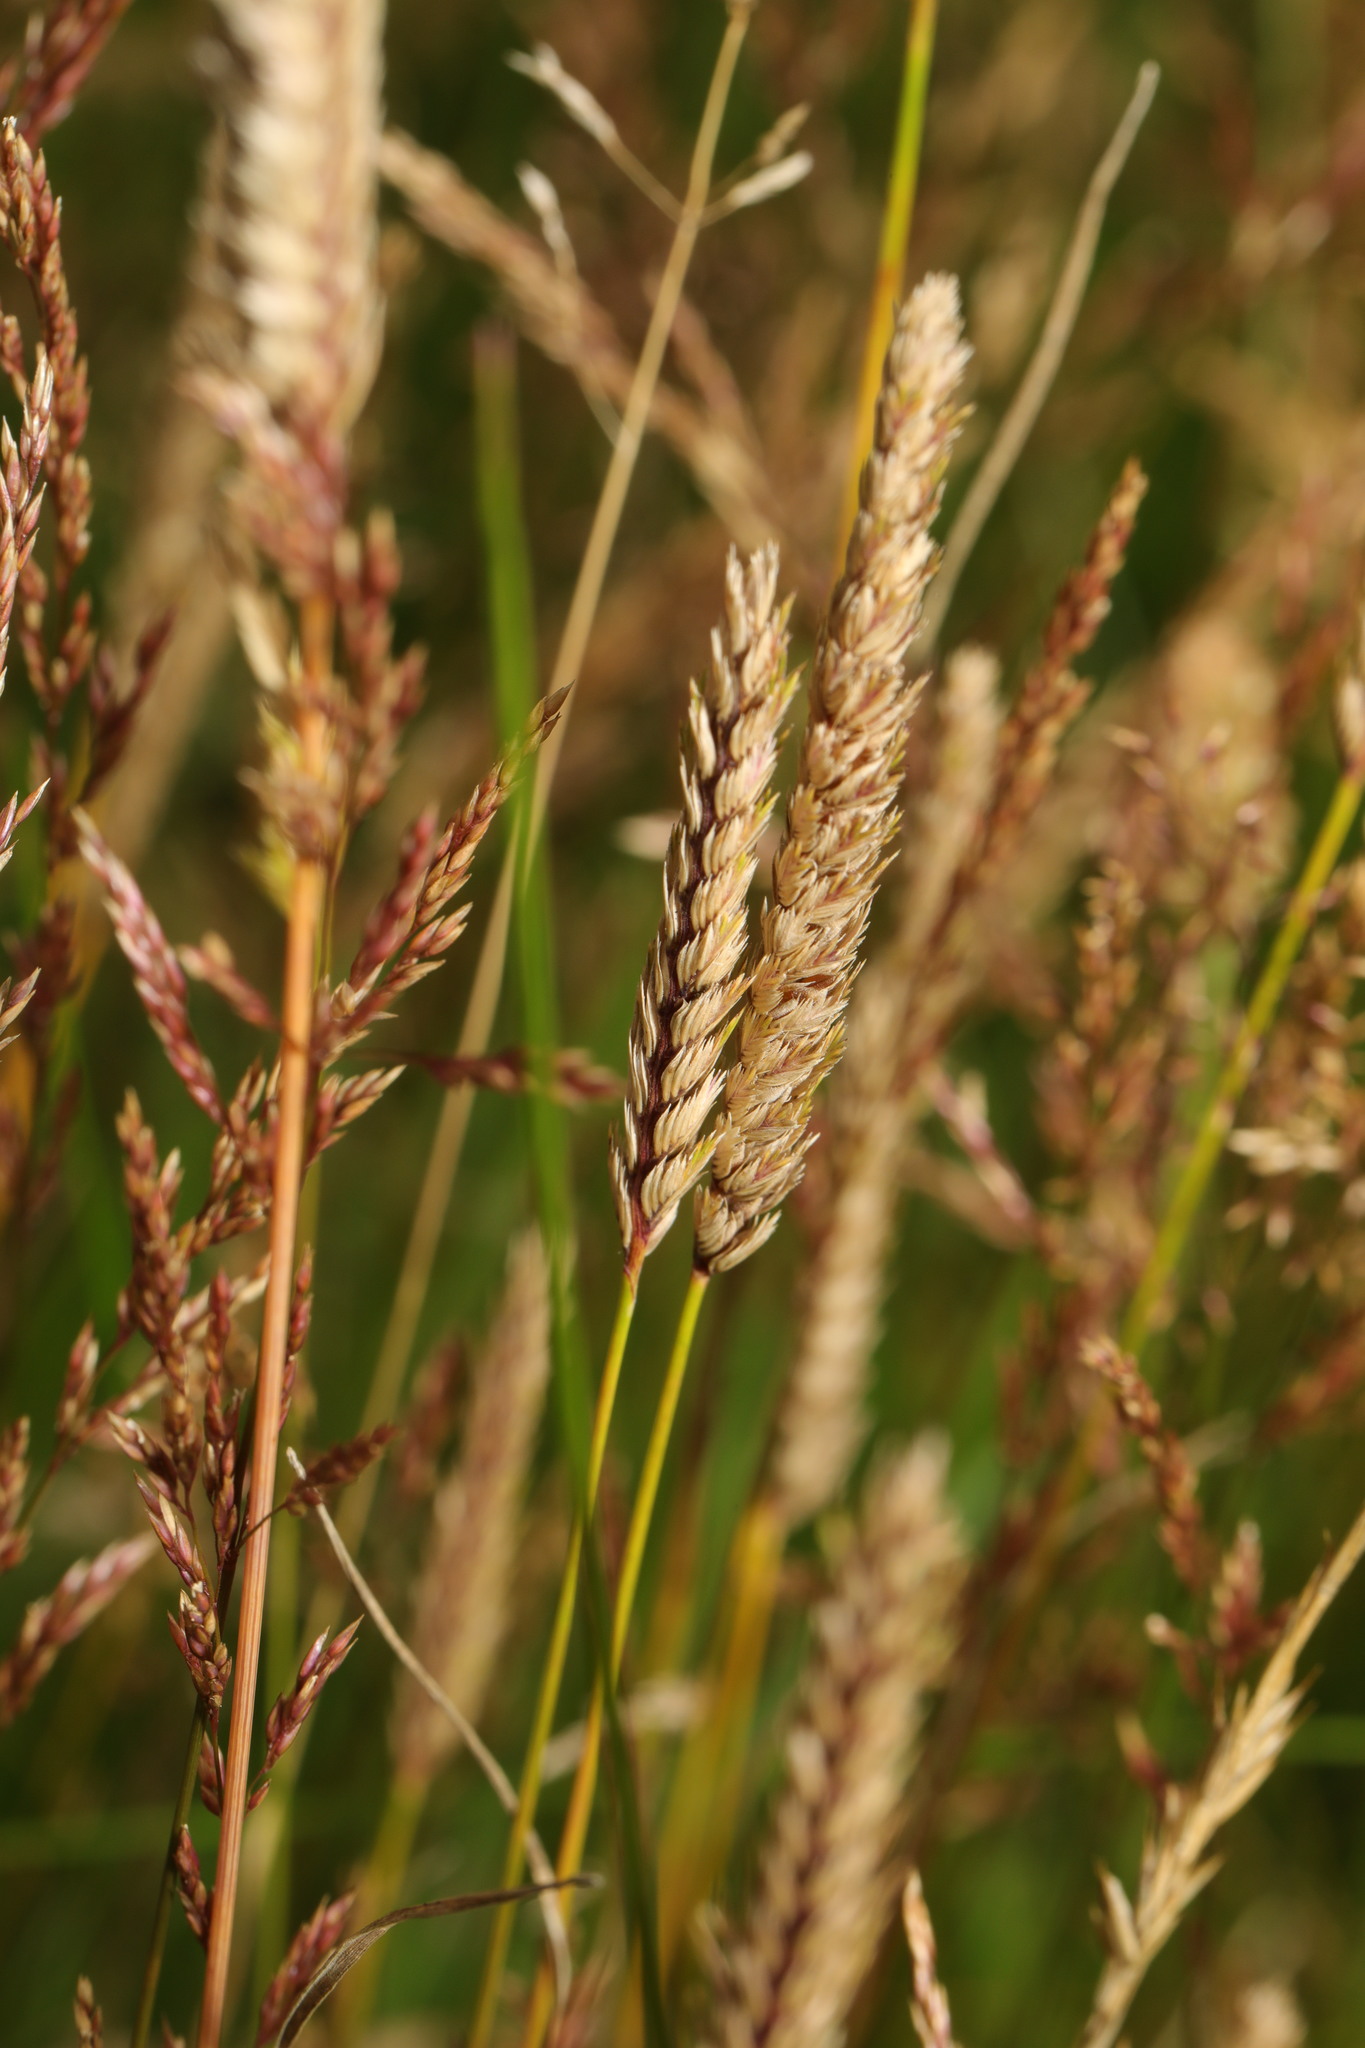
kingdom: Plantae
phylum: Tracheophyta
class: Liliopsida
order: Poales
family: Poaceae
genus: Cynosurus
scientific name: Cynosurus cristatus
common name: Crested dog's-tail
